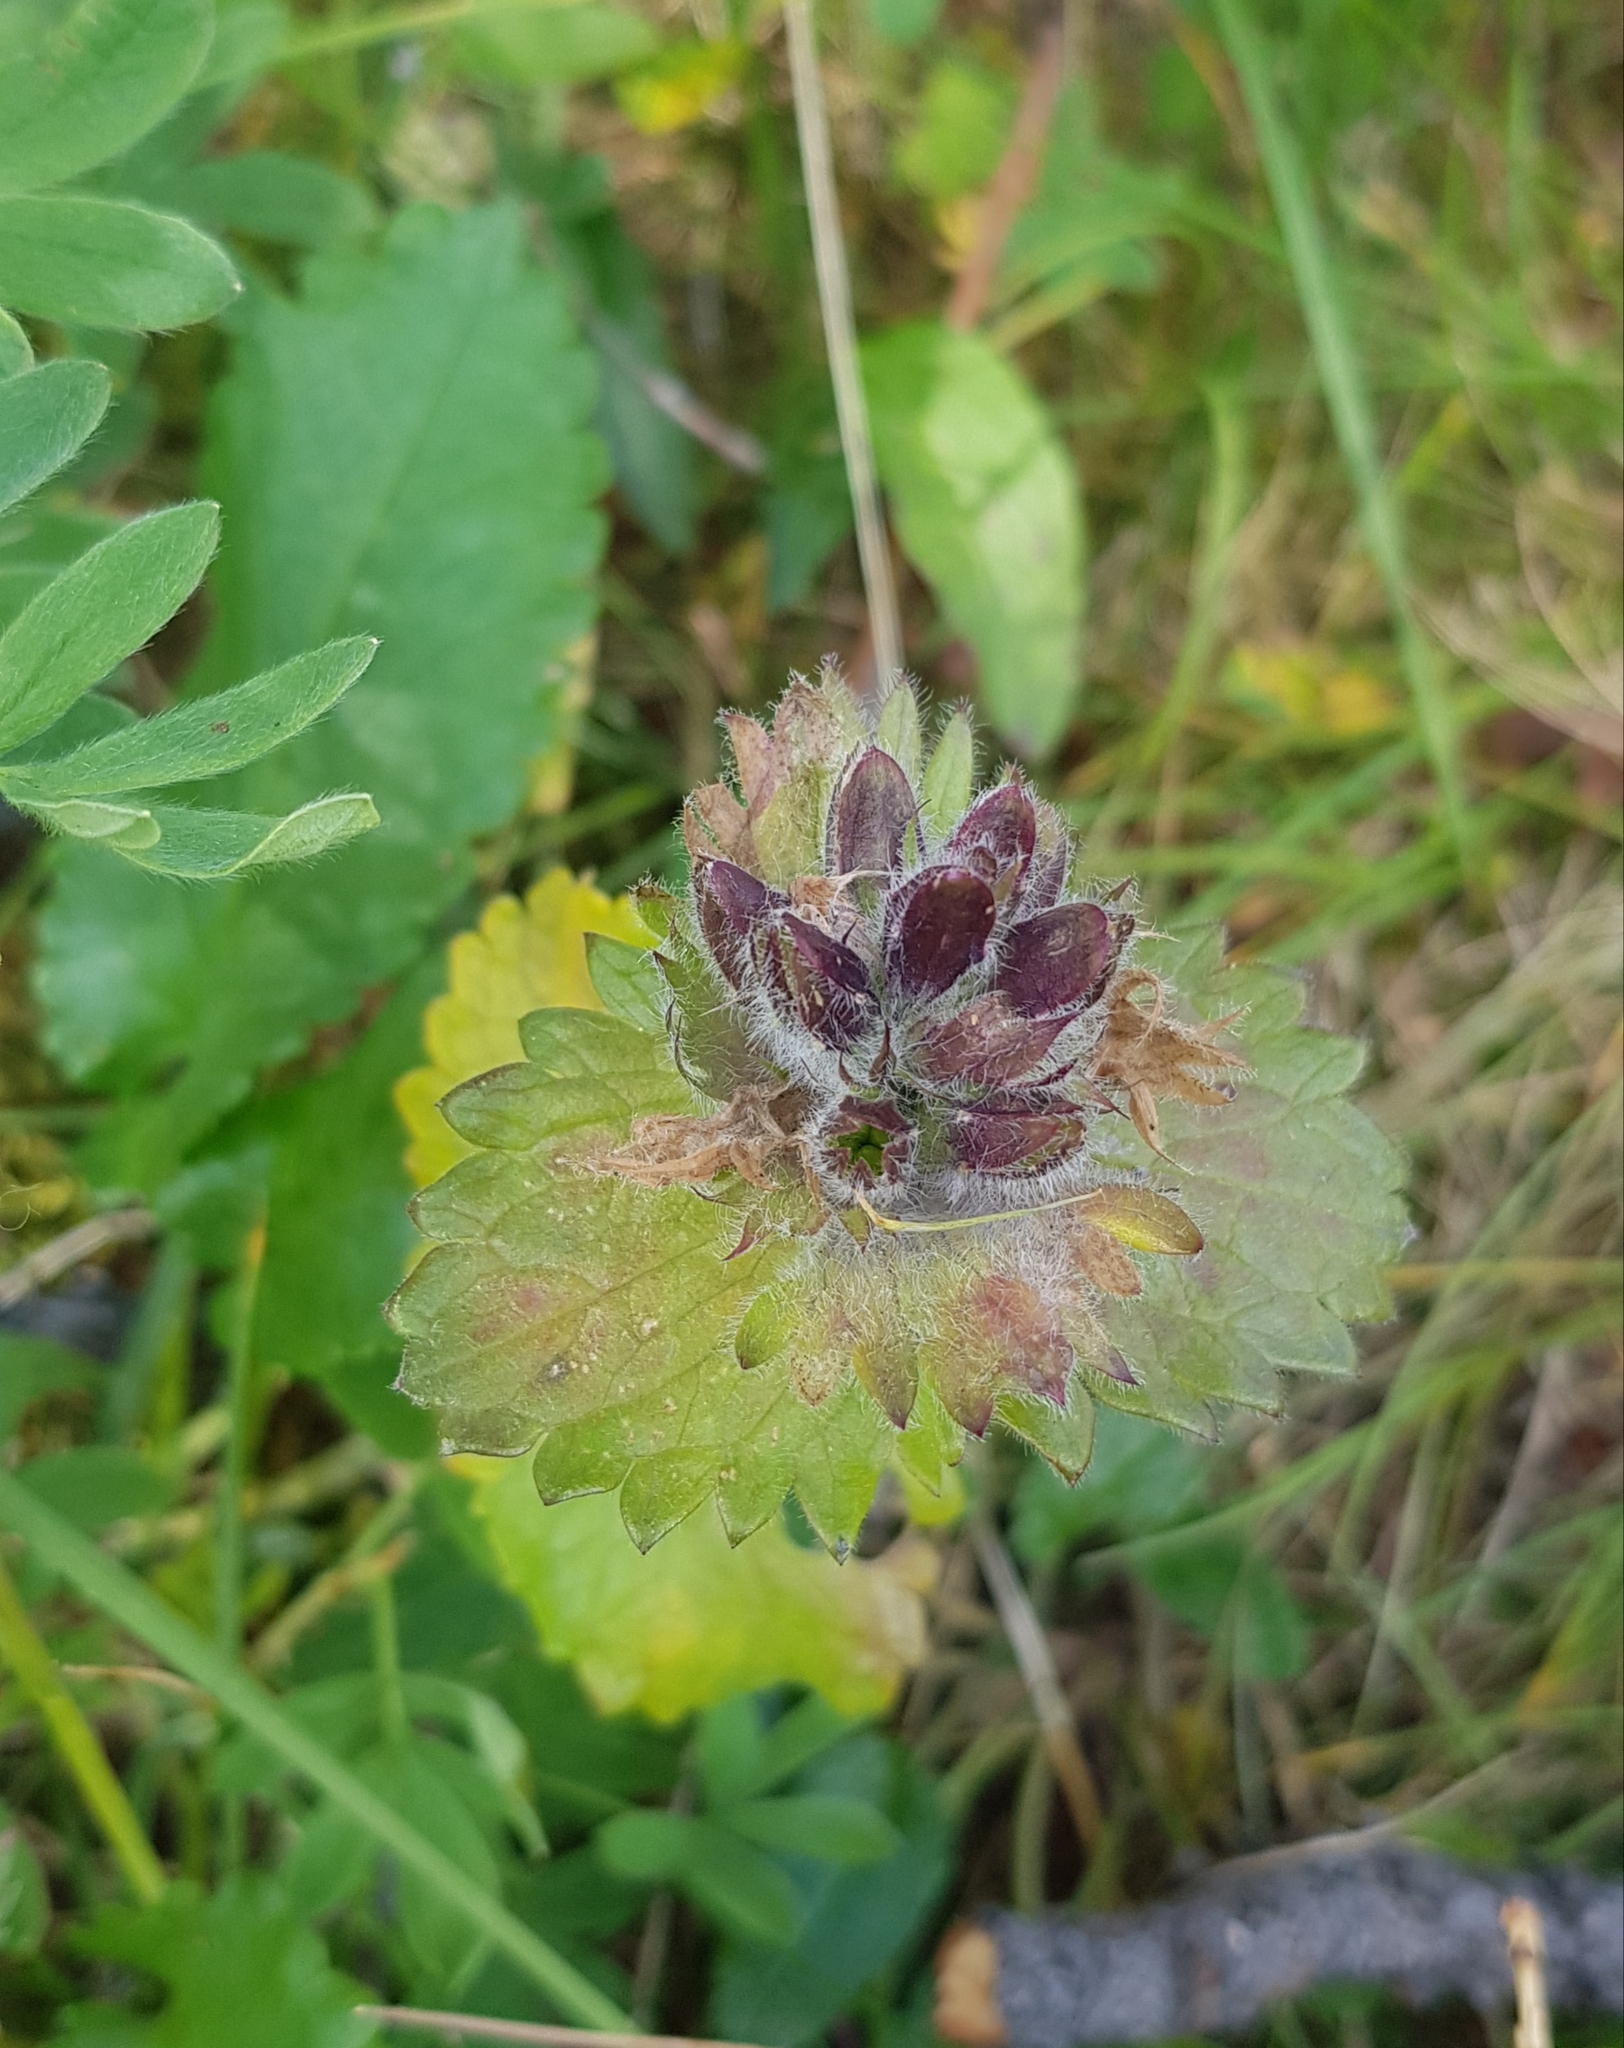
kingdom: Plantae
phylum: Tracheophyta
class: Magnoliopsida
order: Lamiales
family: Lamiaceae
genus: Dracocephalum
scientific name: Dracocephalum grandiflorum
